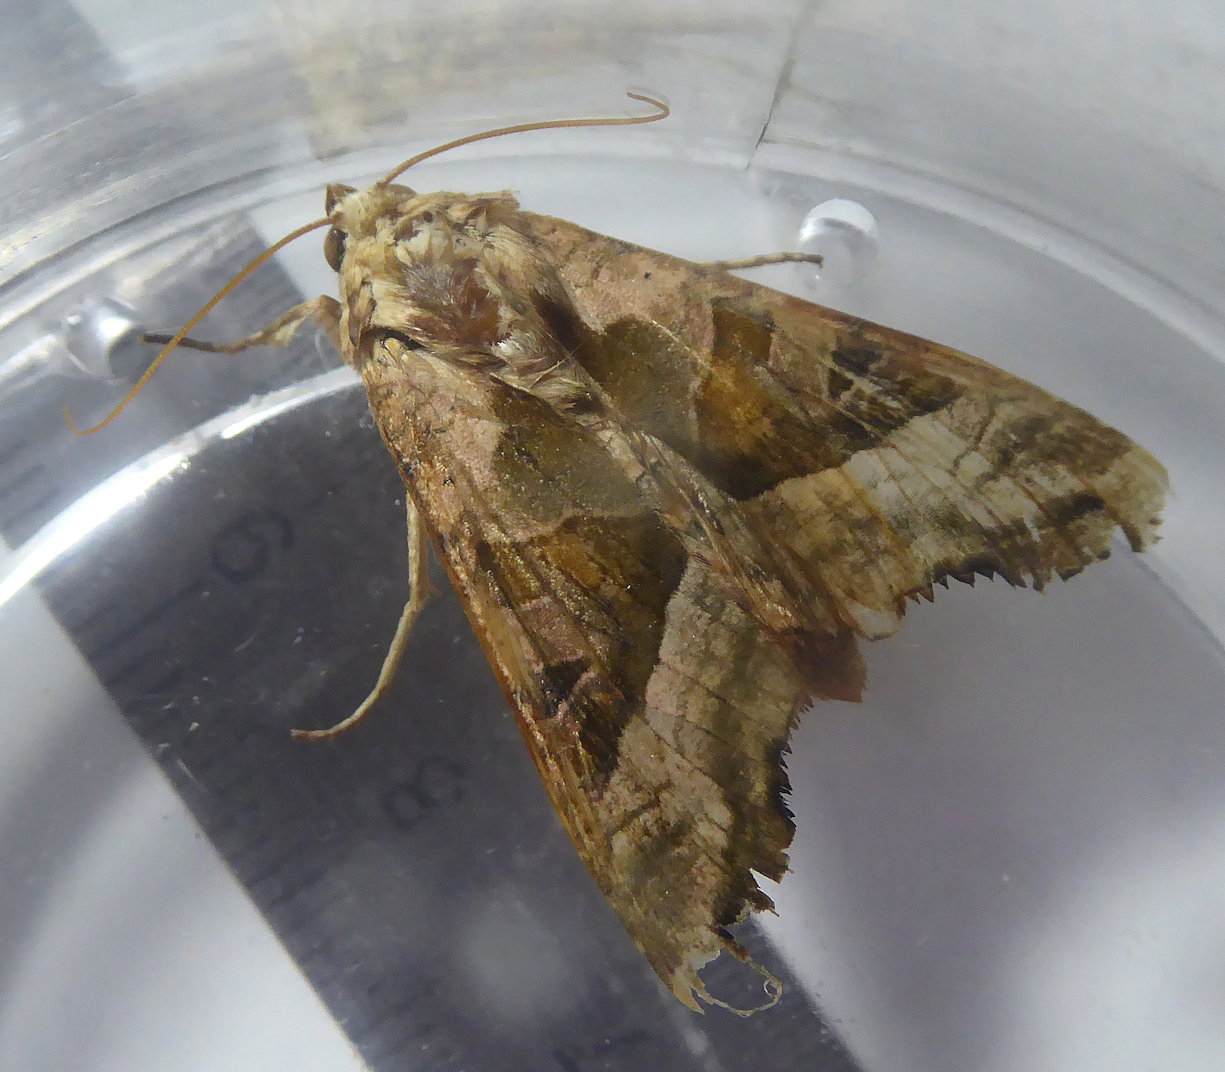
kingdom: Animalia
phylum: Arthropoda
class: Insecta
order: Lepidoptera
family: Noctuidae
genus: Phlogophora
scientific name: Phlogophora meticulosa
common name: Angle shades
